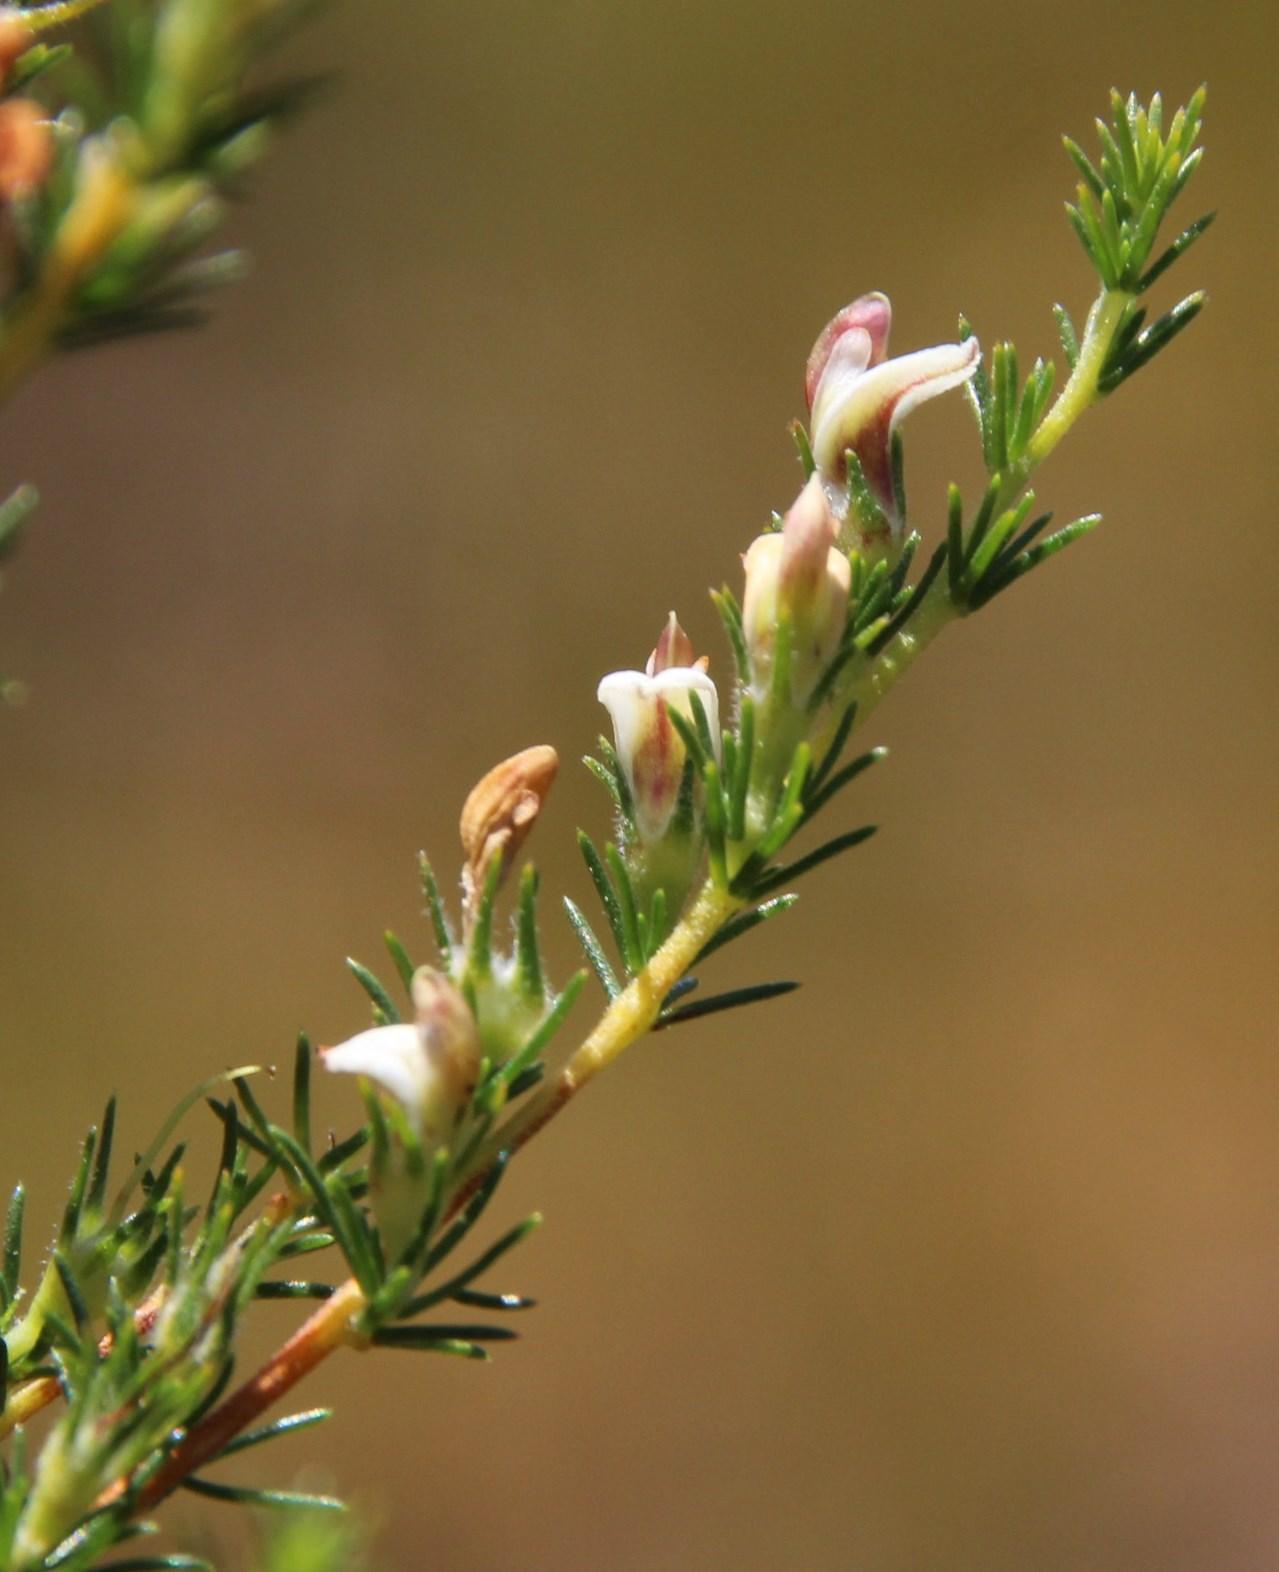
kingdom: Plantae
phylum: Tracheophyta
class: Magnoliopsida
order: Fabales
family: Fabaceae
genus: Aspalathus
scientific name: Aspalathus hispida
